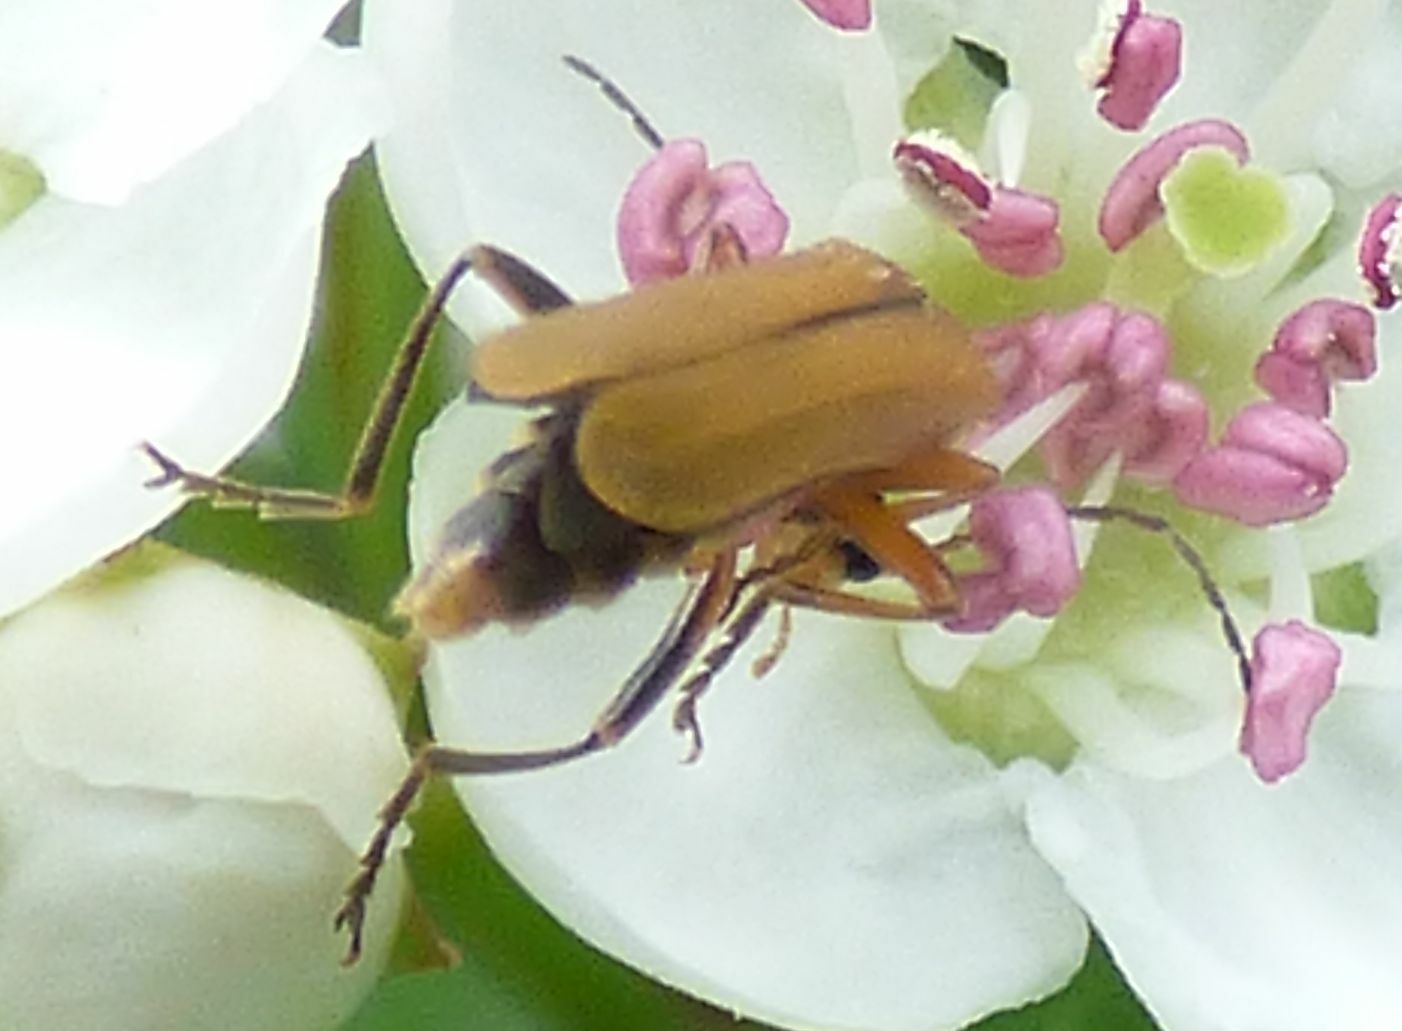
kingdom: Animalia
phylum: Arthropoda
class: Insecta
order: Coleoptera
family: Cantharidae
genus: Cantharis
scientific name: Cantharis decipiens
